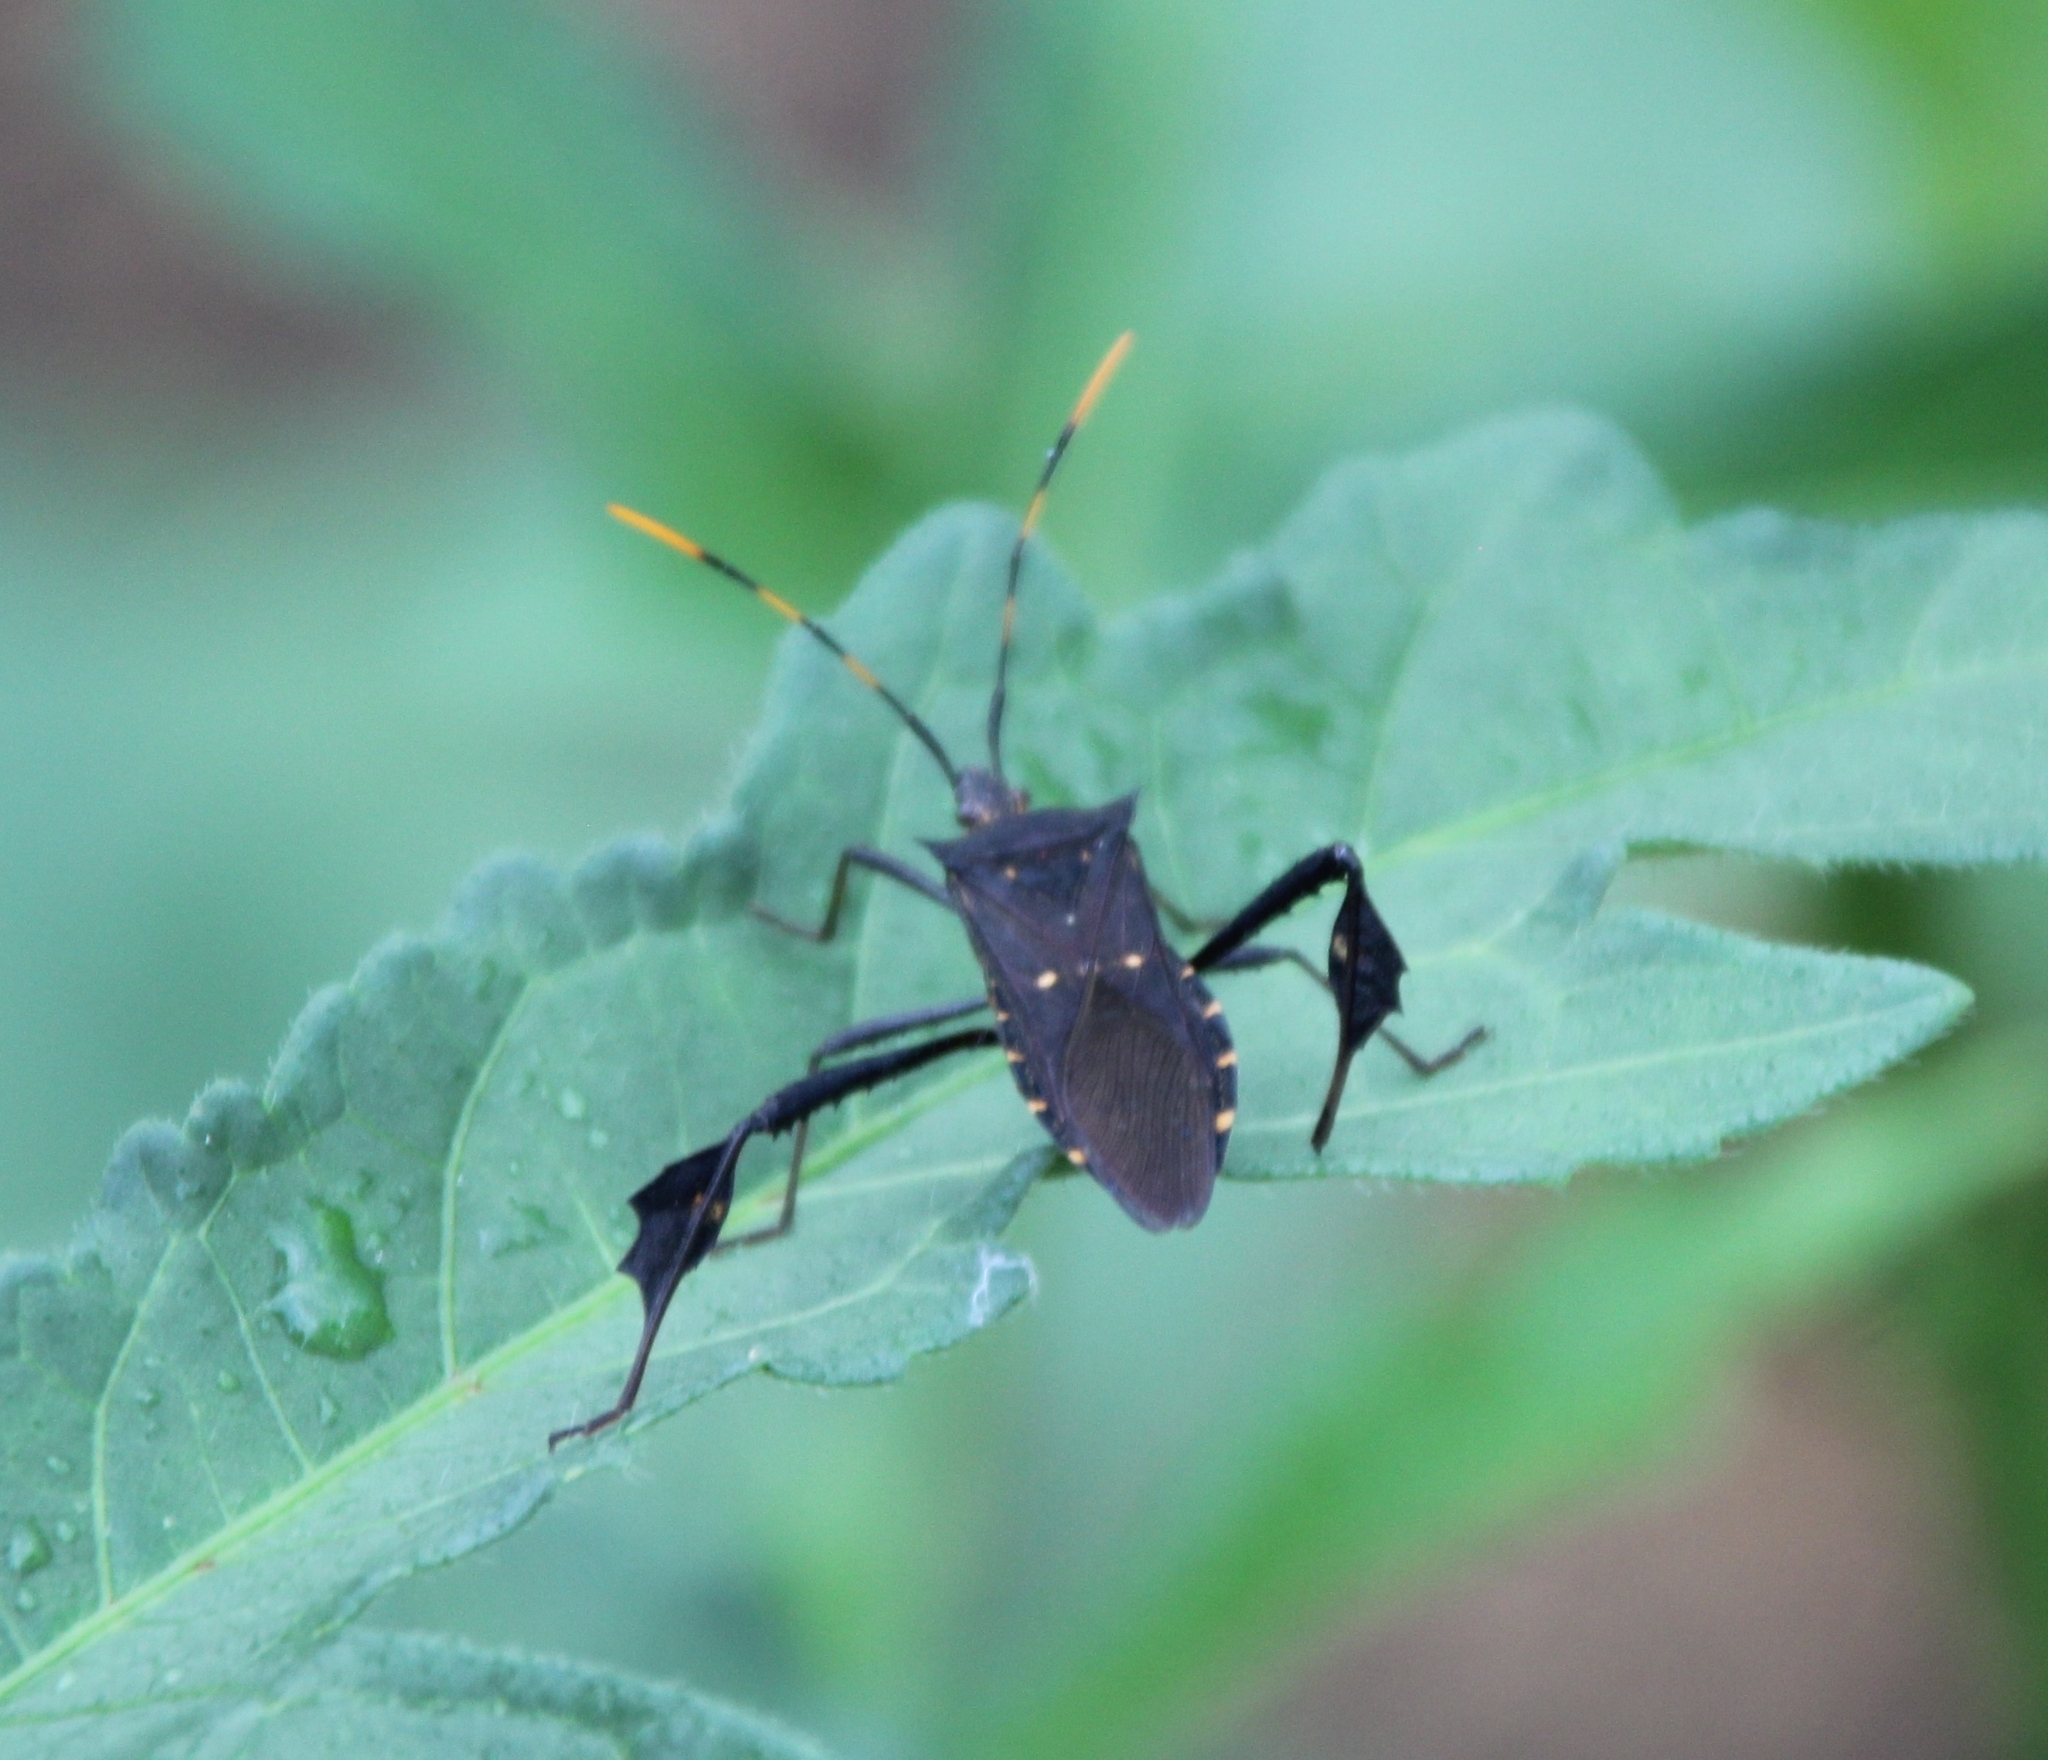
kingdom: Animalia
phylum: Arthropoda
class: Insecta
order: Hemiptera
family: Coreidae
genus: Leptoglossus
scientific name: Leptoglossus gonagra
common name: Citron bug
